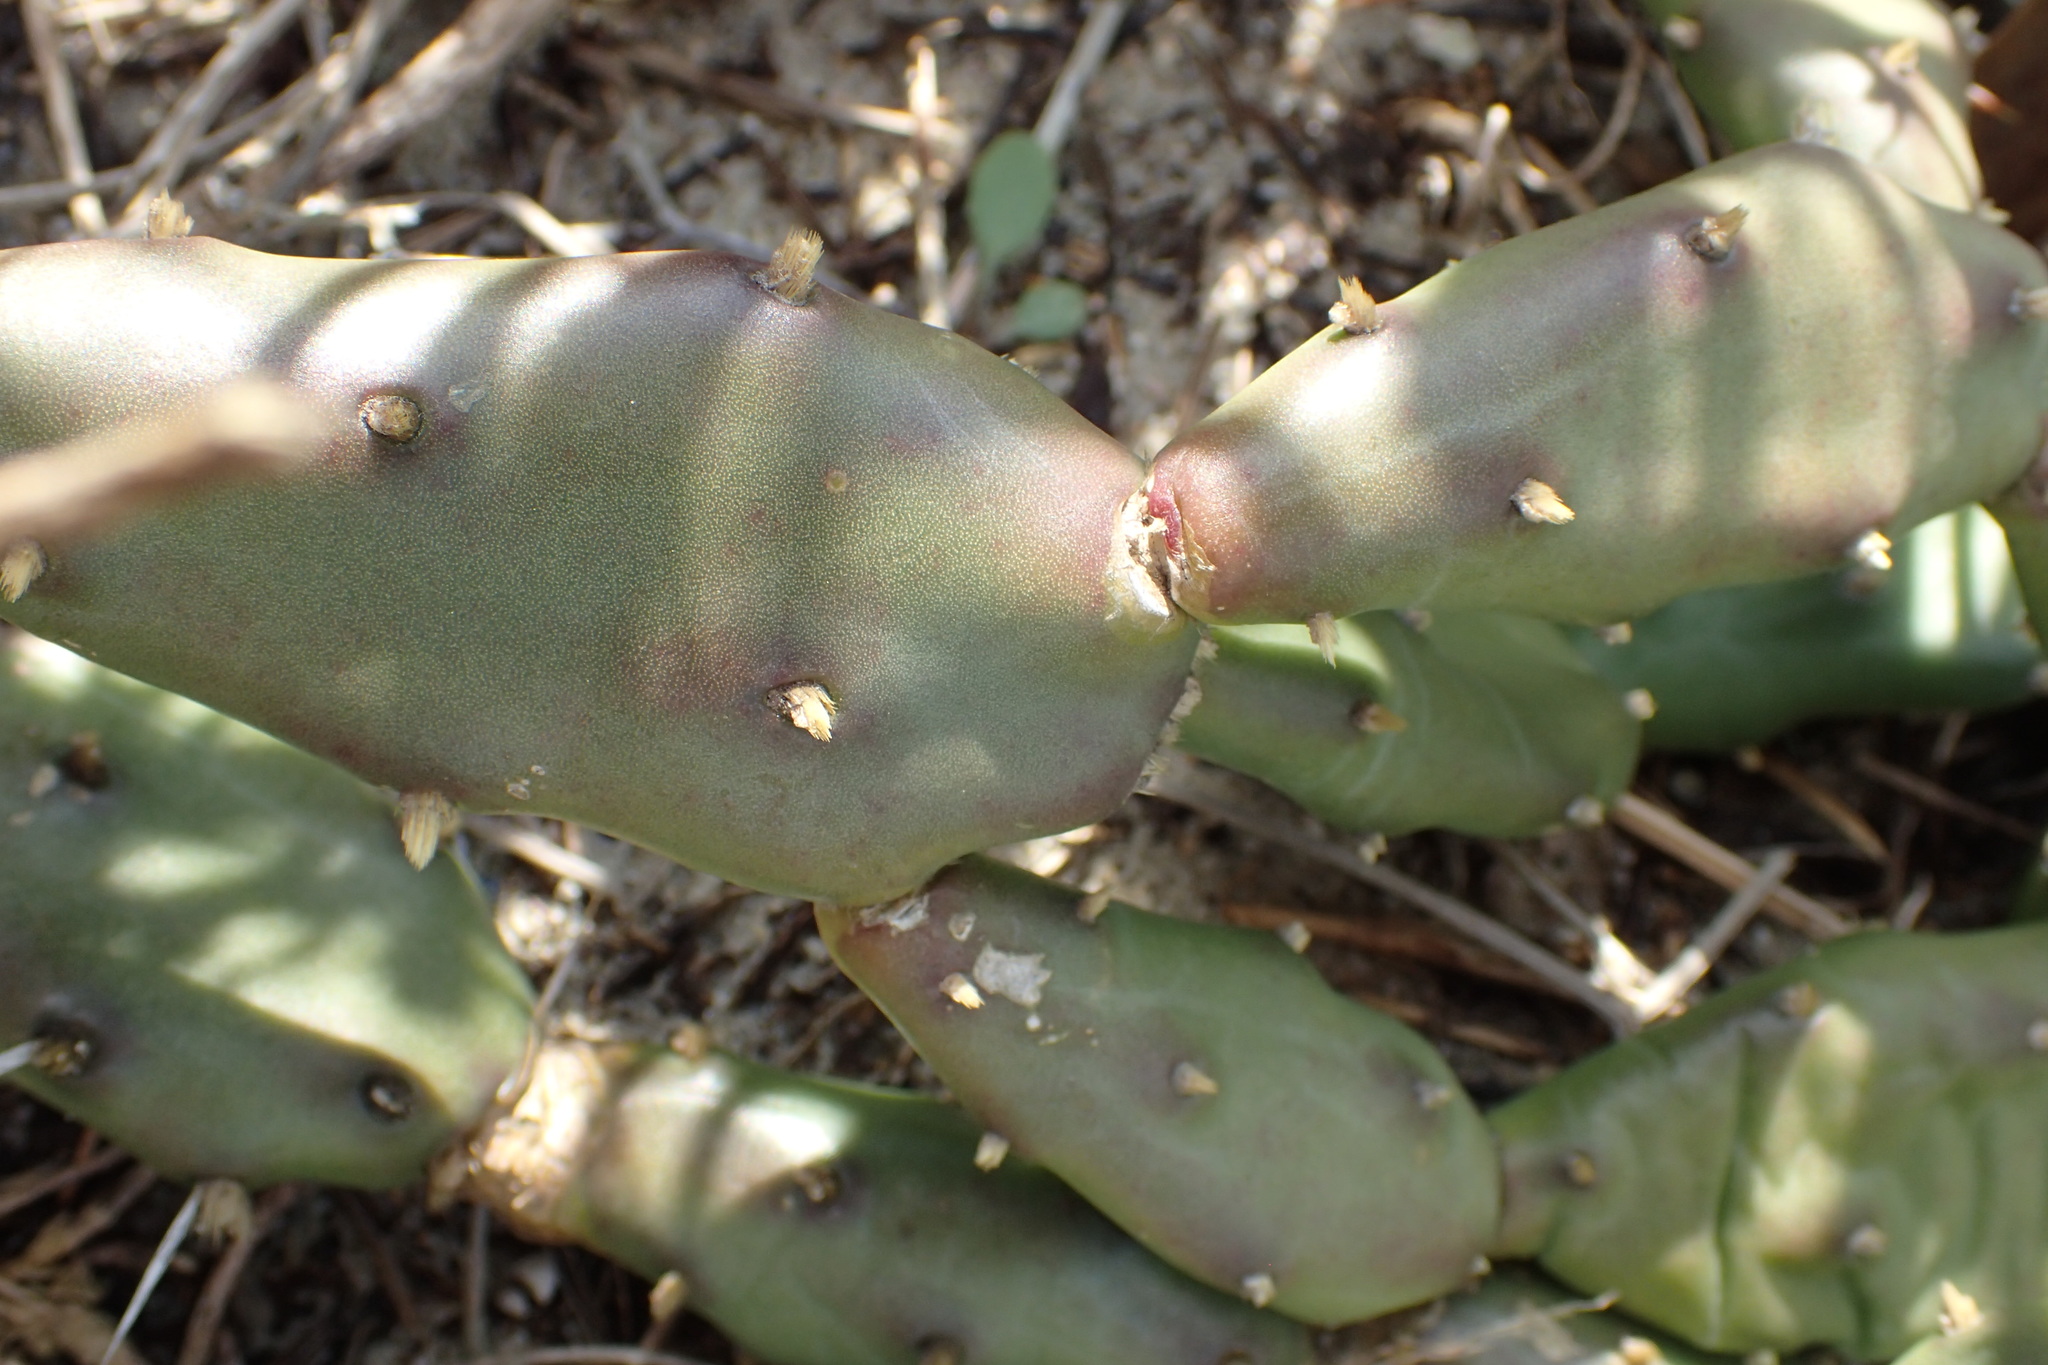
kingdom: Plantae
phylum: Tracheophyta
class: Magnoliopsida
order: Caryophyllales
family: Cactaceae
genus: Opuntia
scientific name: Opuntia drummondii
